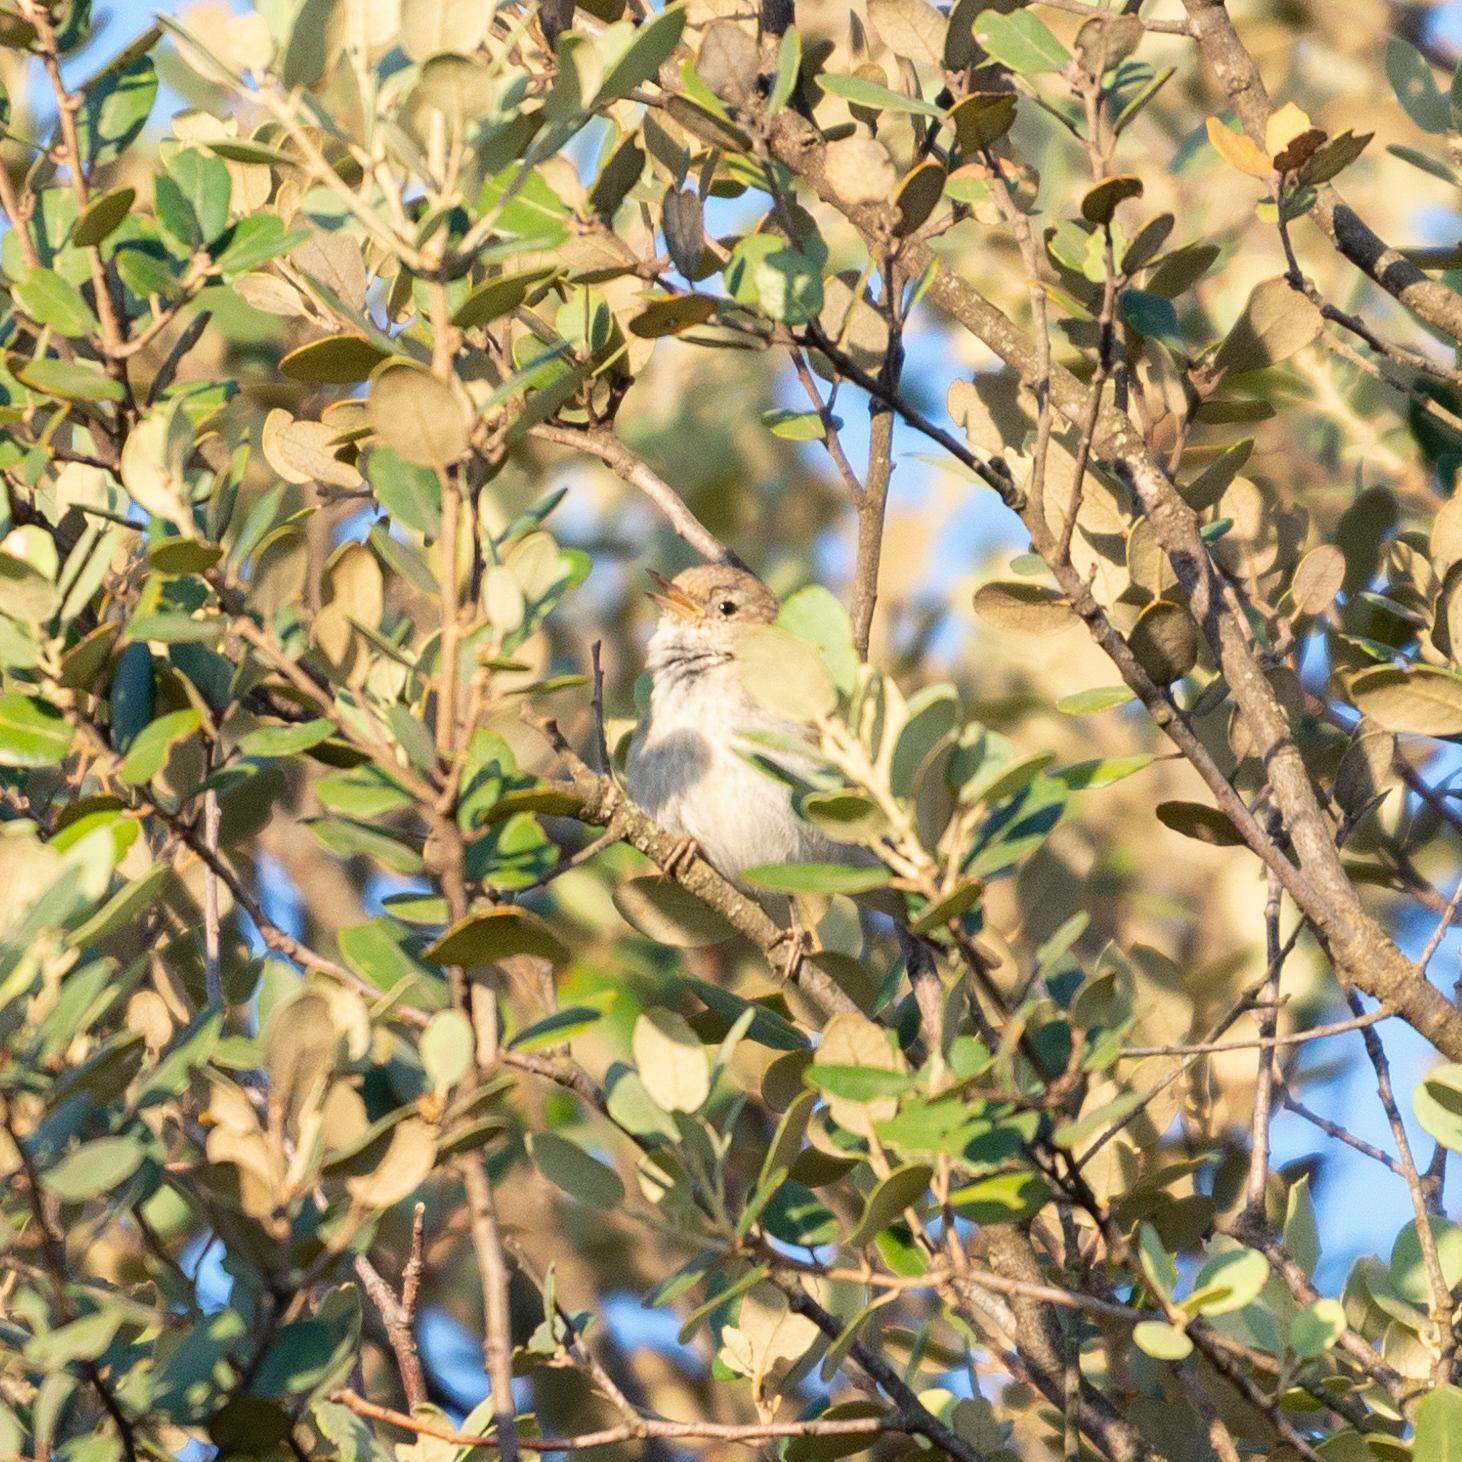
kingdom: Animalia
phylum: Chordata
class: Aves
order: Passeriformes
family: Phylloscopidae
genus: Phylloscopus
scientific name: Phylloscopus bonelli
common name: Western bonelli's warbler
